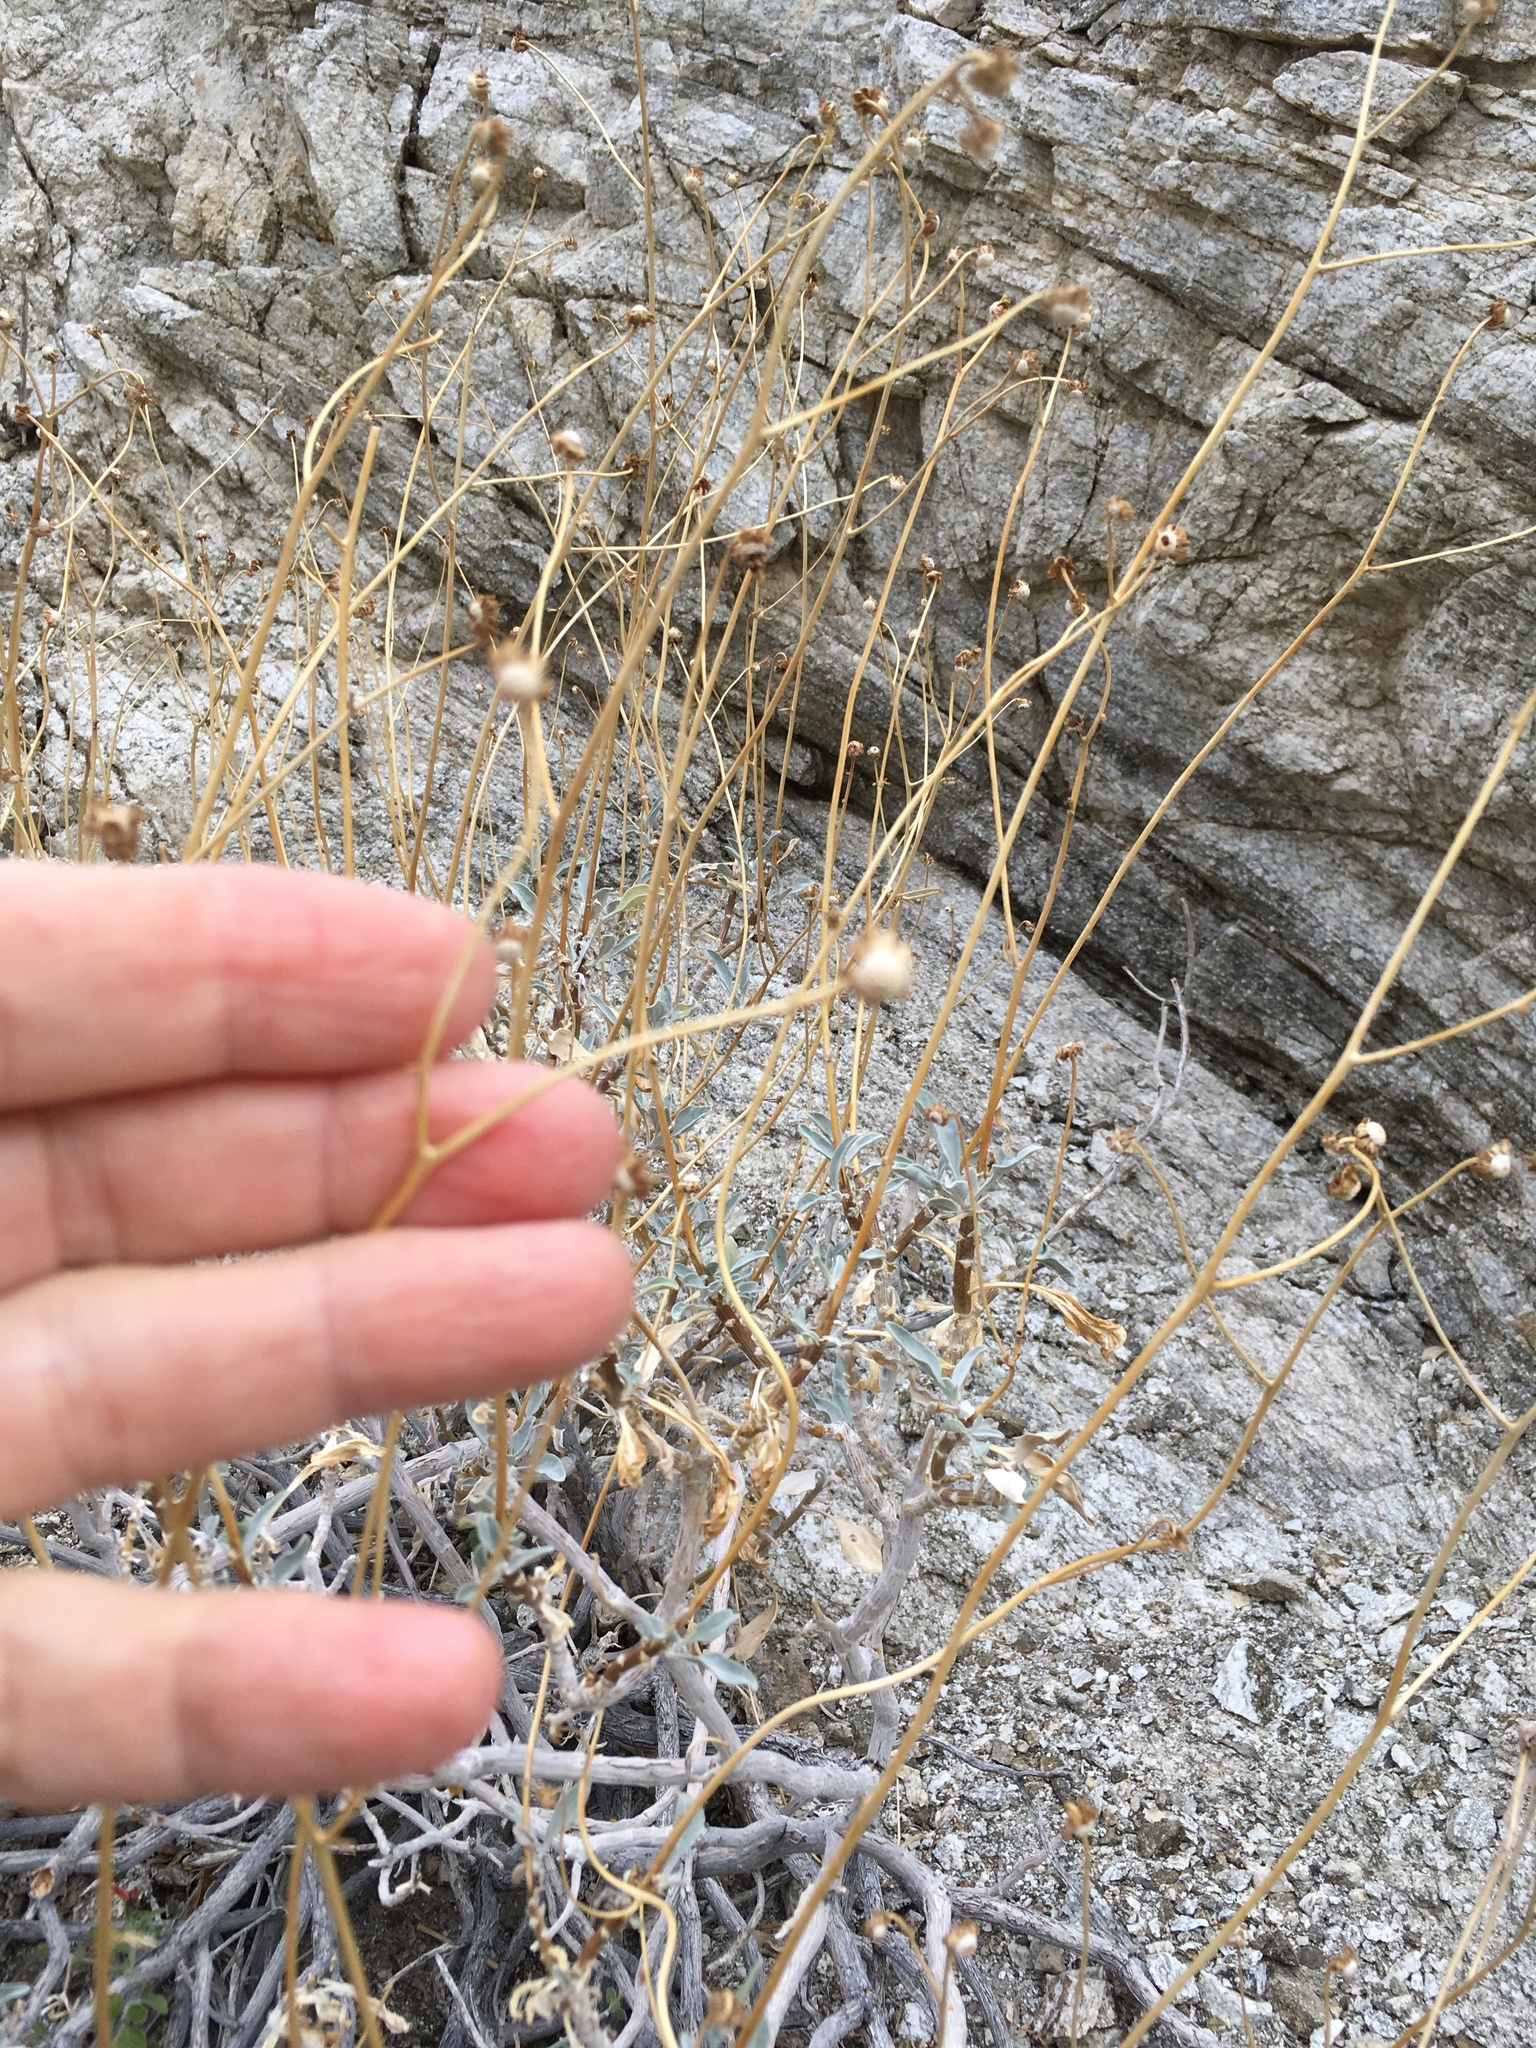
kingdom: Plantae
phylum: Tracheophyta
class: Magnoliopsida
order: Asterales
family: Asteraceae
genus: Encelia
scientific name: Encelia farinosa
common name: Brittlebush
